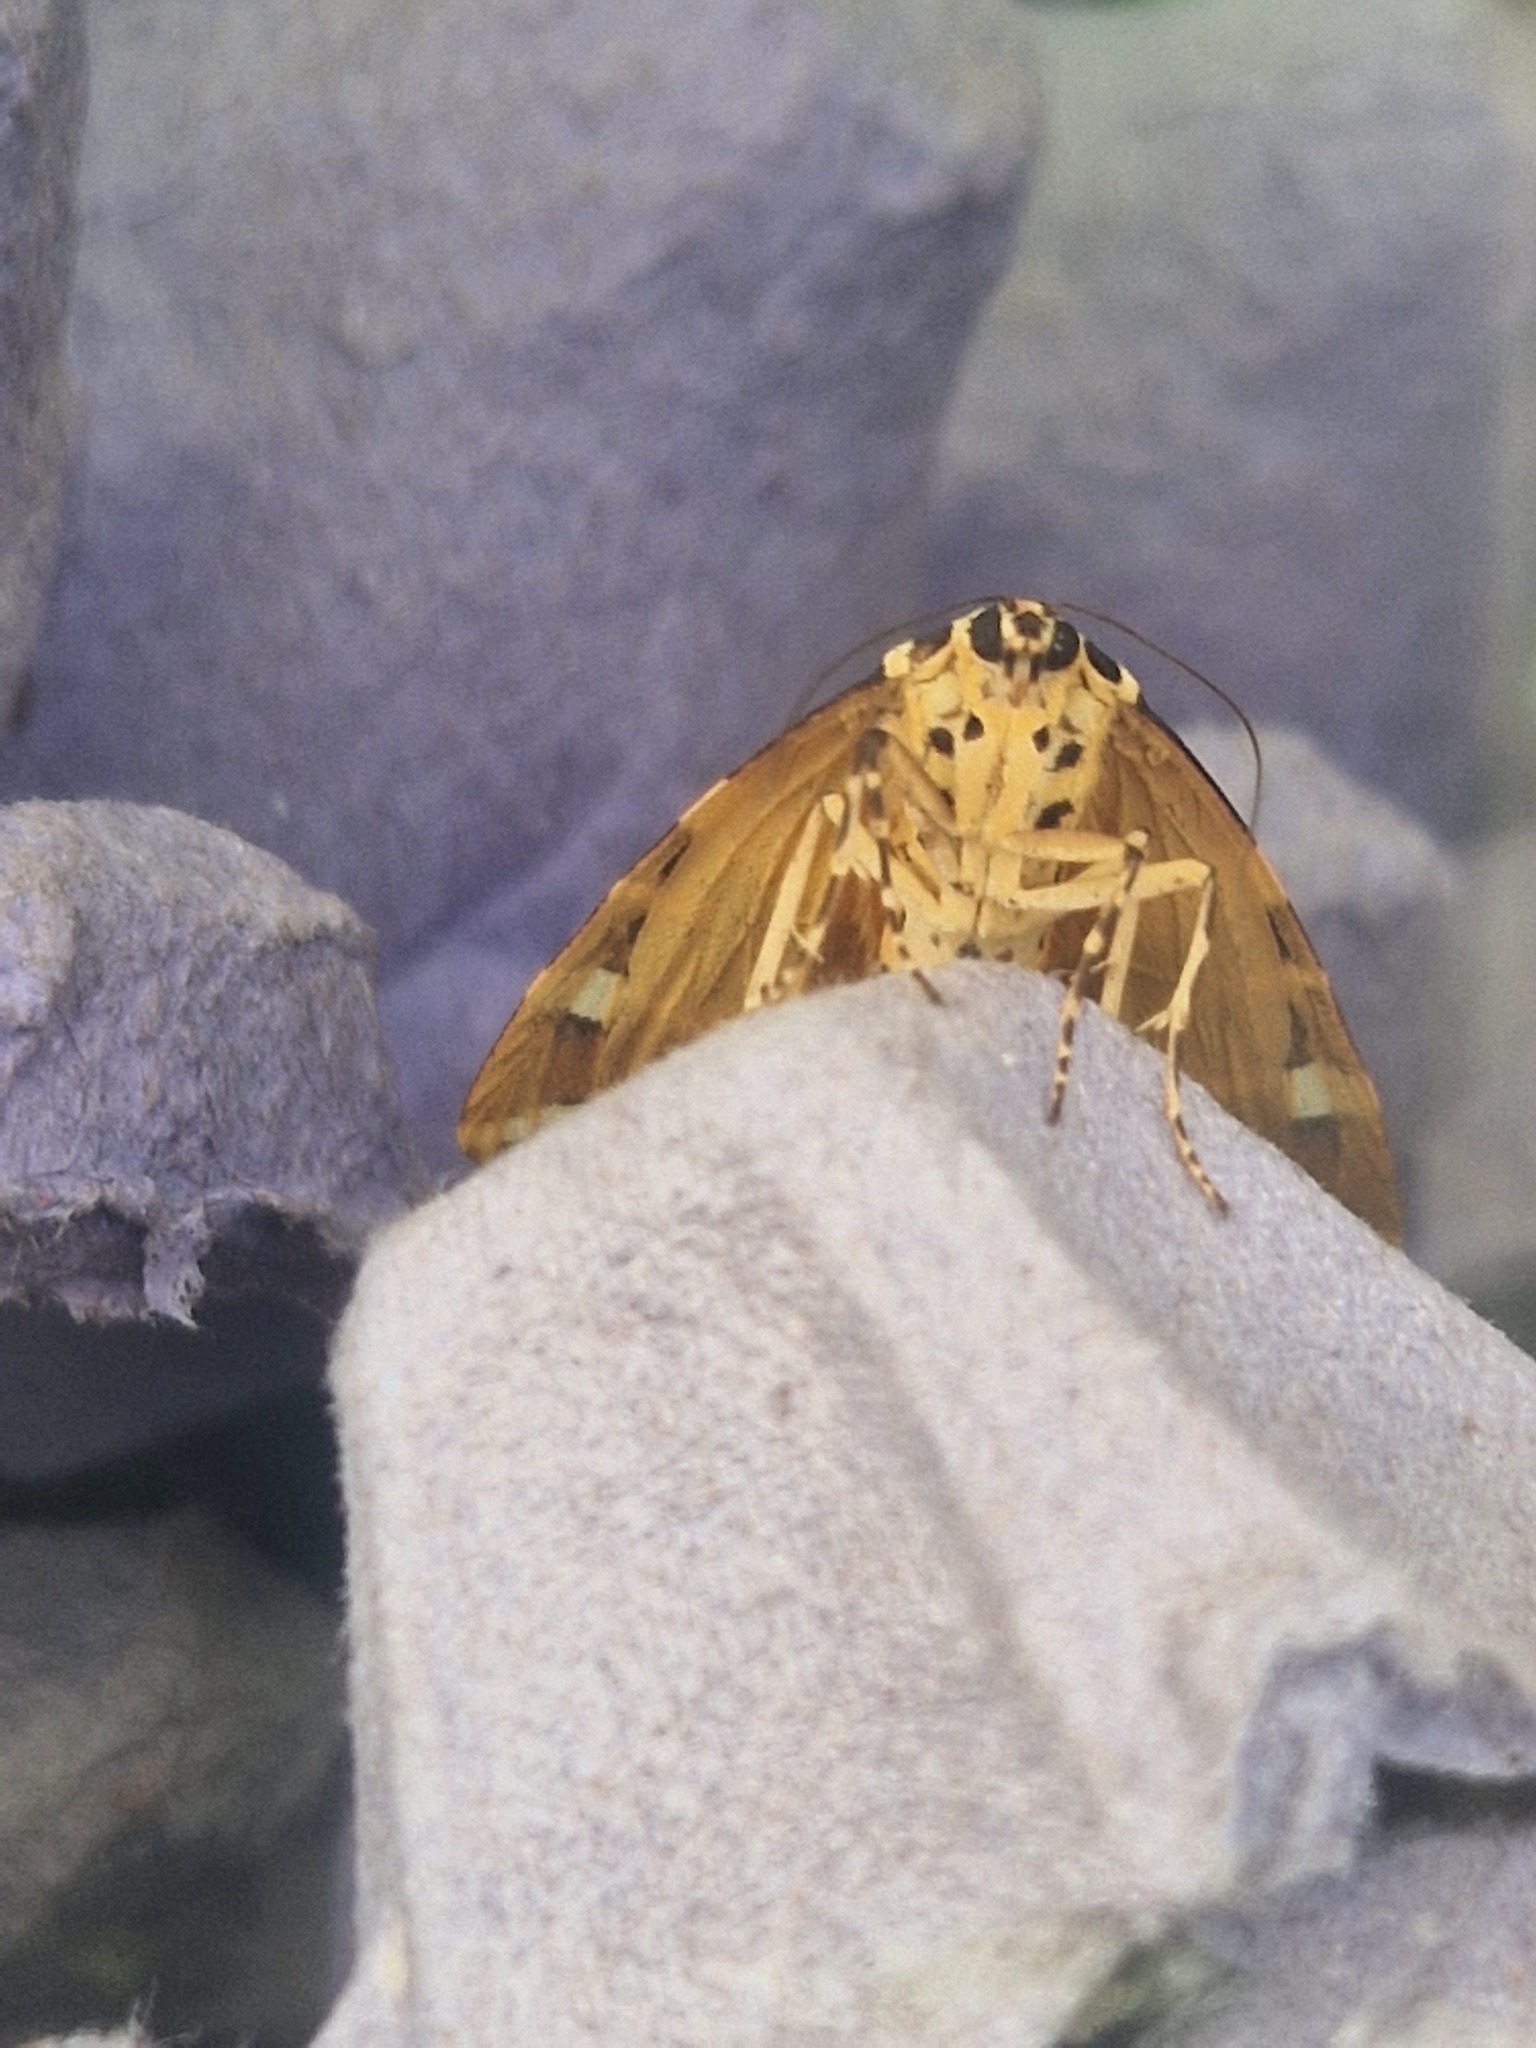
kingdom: Animalia
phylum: Arthropoda
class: Insecta
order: Lepidoptera
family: Erebidae
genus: Euplagia
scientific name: Euplagia quadripunctaria
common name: Jersey tiger
